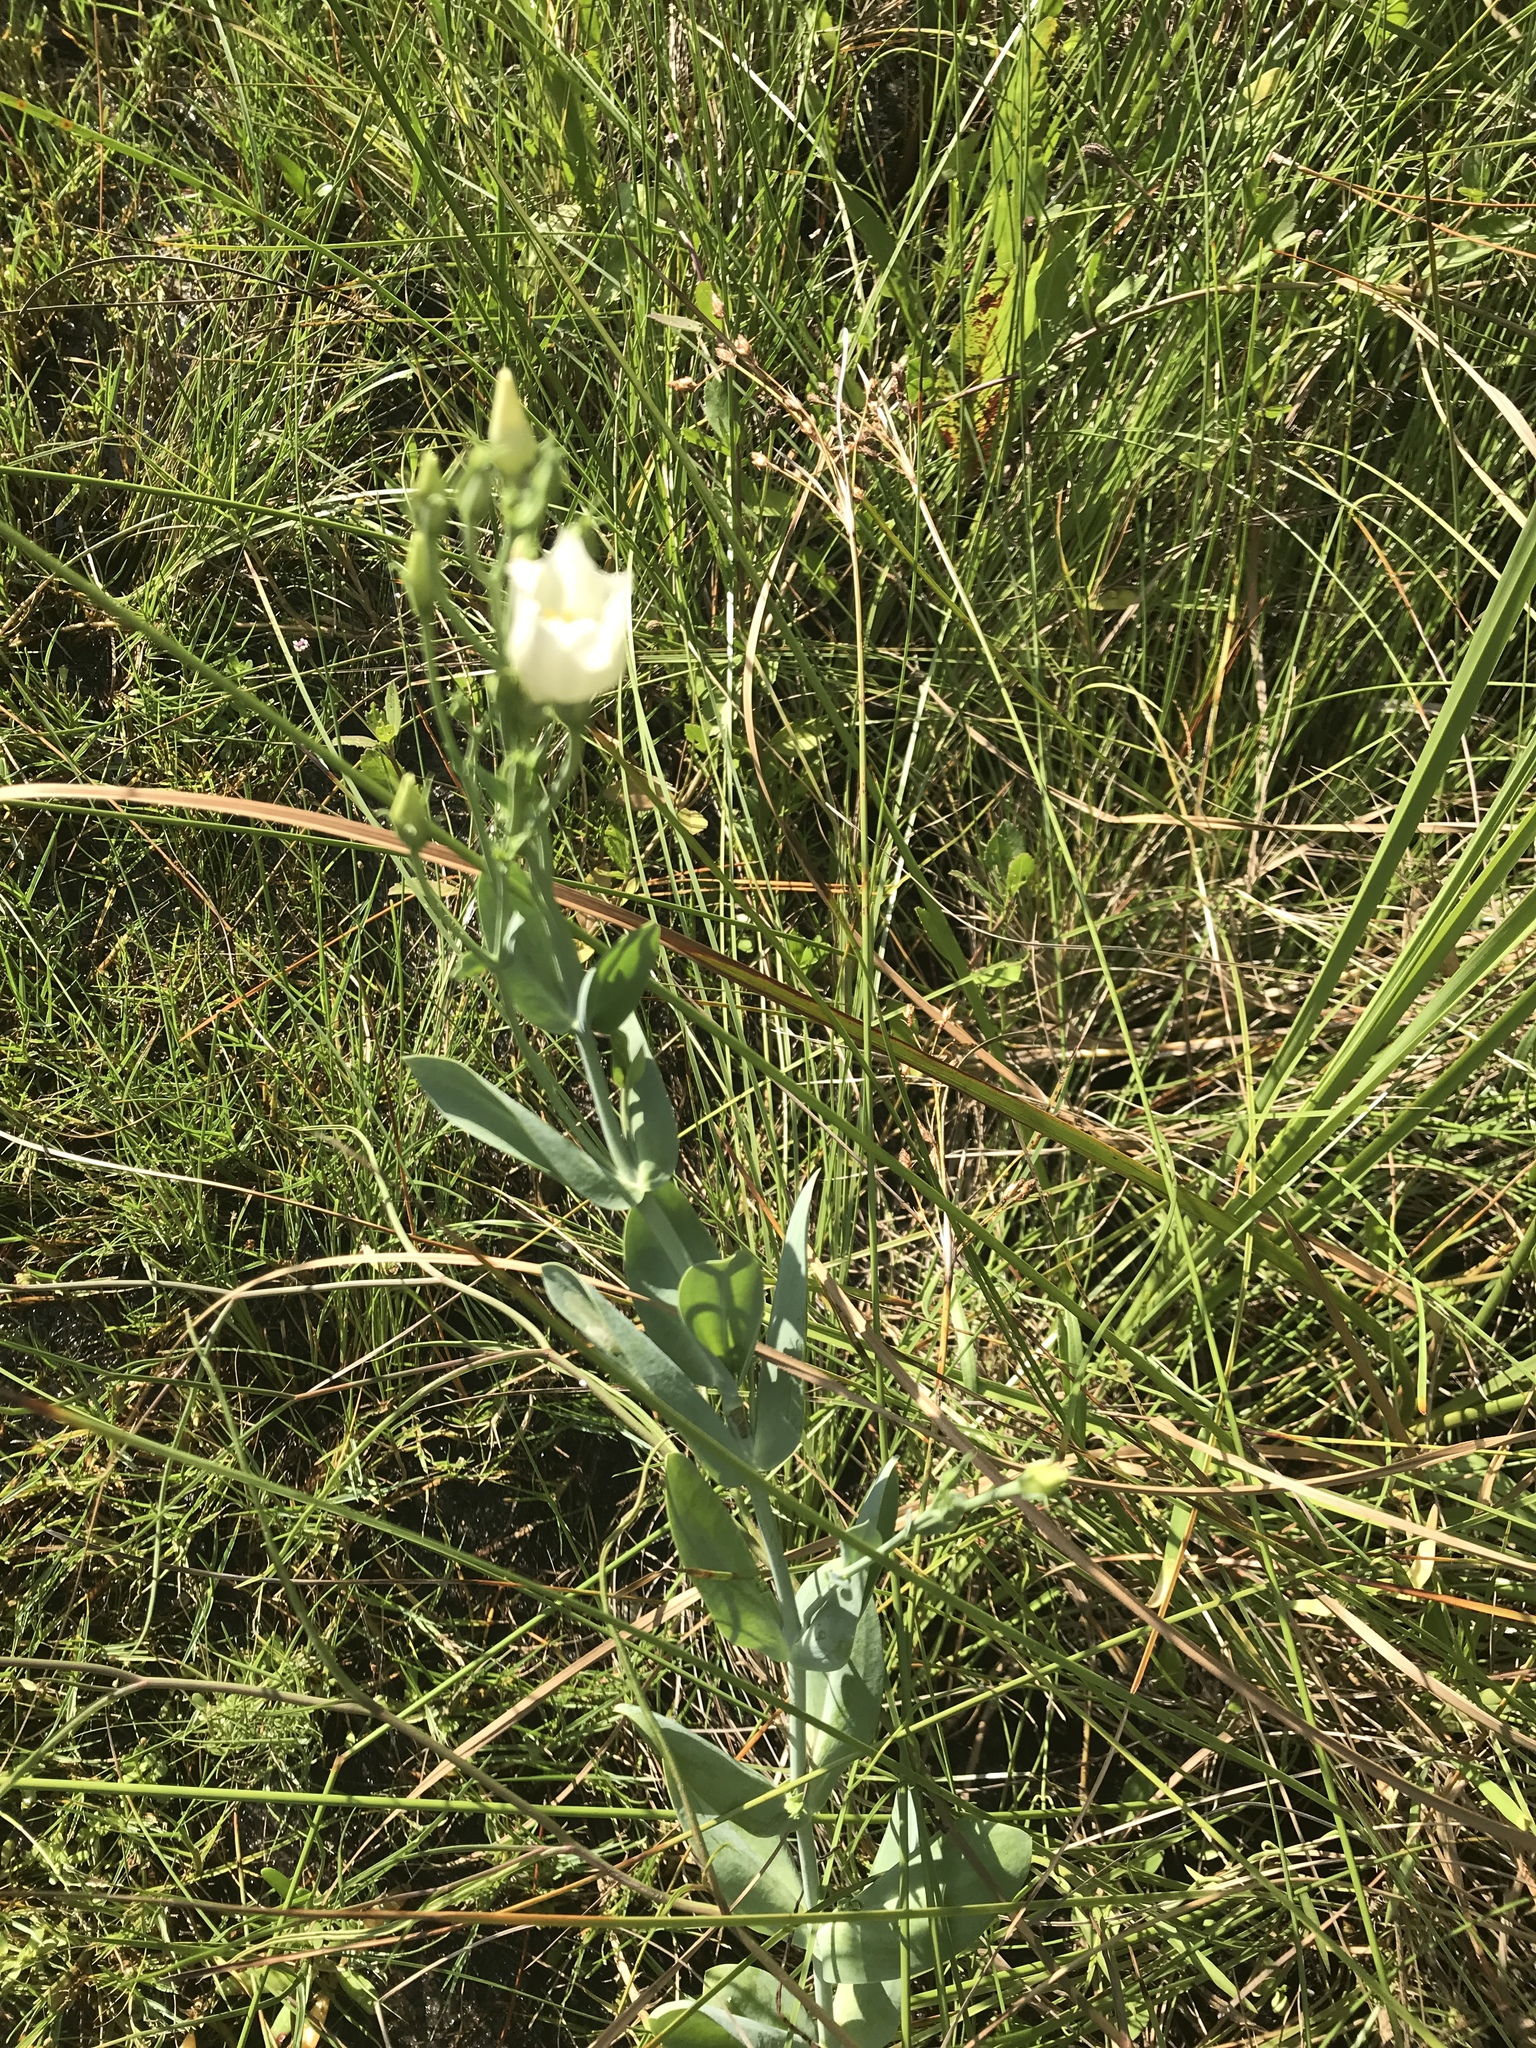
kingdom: Plantae
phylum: Tracheophyta
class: Magnoliopsida
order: Gentianales
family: Gentianaceae
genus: Eustoma
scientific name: Eustoma exaltatum
